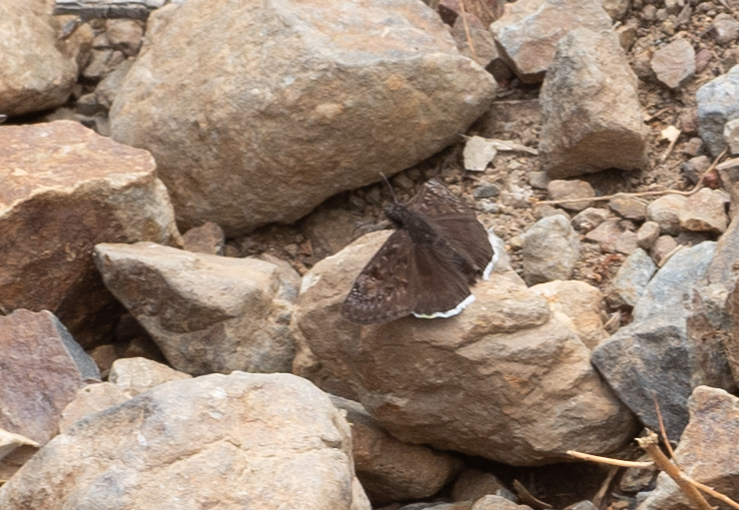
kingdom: Animalia
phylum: Arthropoda
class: Insecta
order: Lepidoptera
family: Hesperiidae
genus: Erynnis
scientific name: Erynnis tristis
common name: Mournful duskywing
